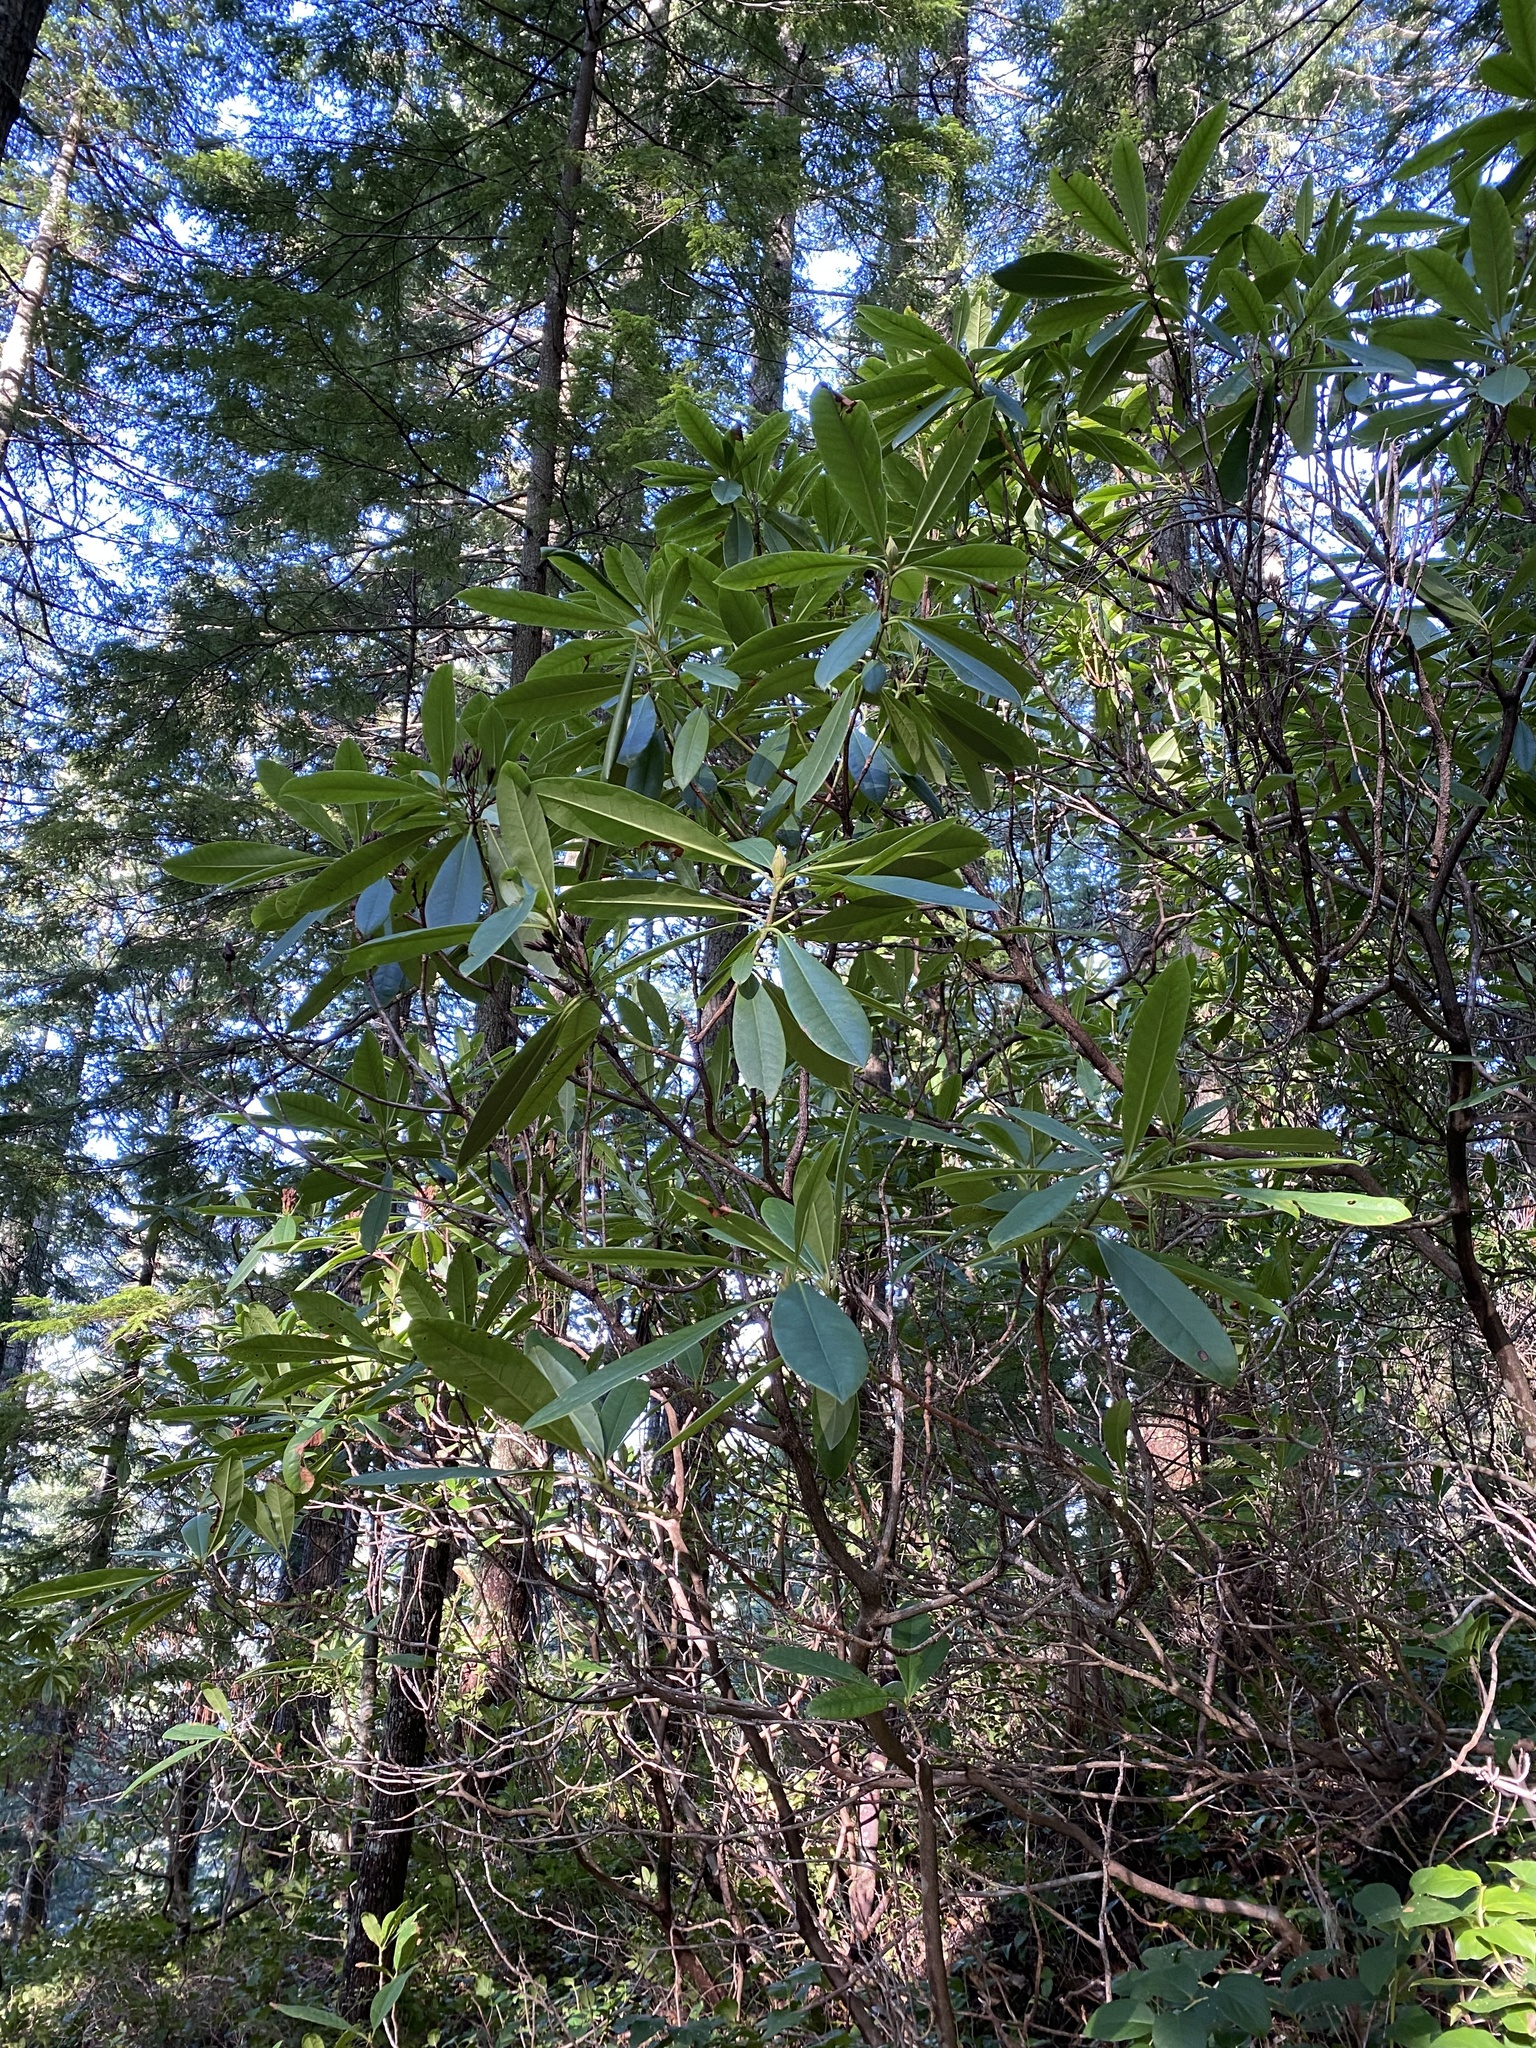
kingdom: Plantae
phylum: Tracheophyta
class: Magnoliopsida
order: Ericales
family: Ericaceae
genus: Rhododendron
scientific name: Rhododendron macrophyllum
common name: California rose bay
